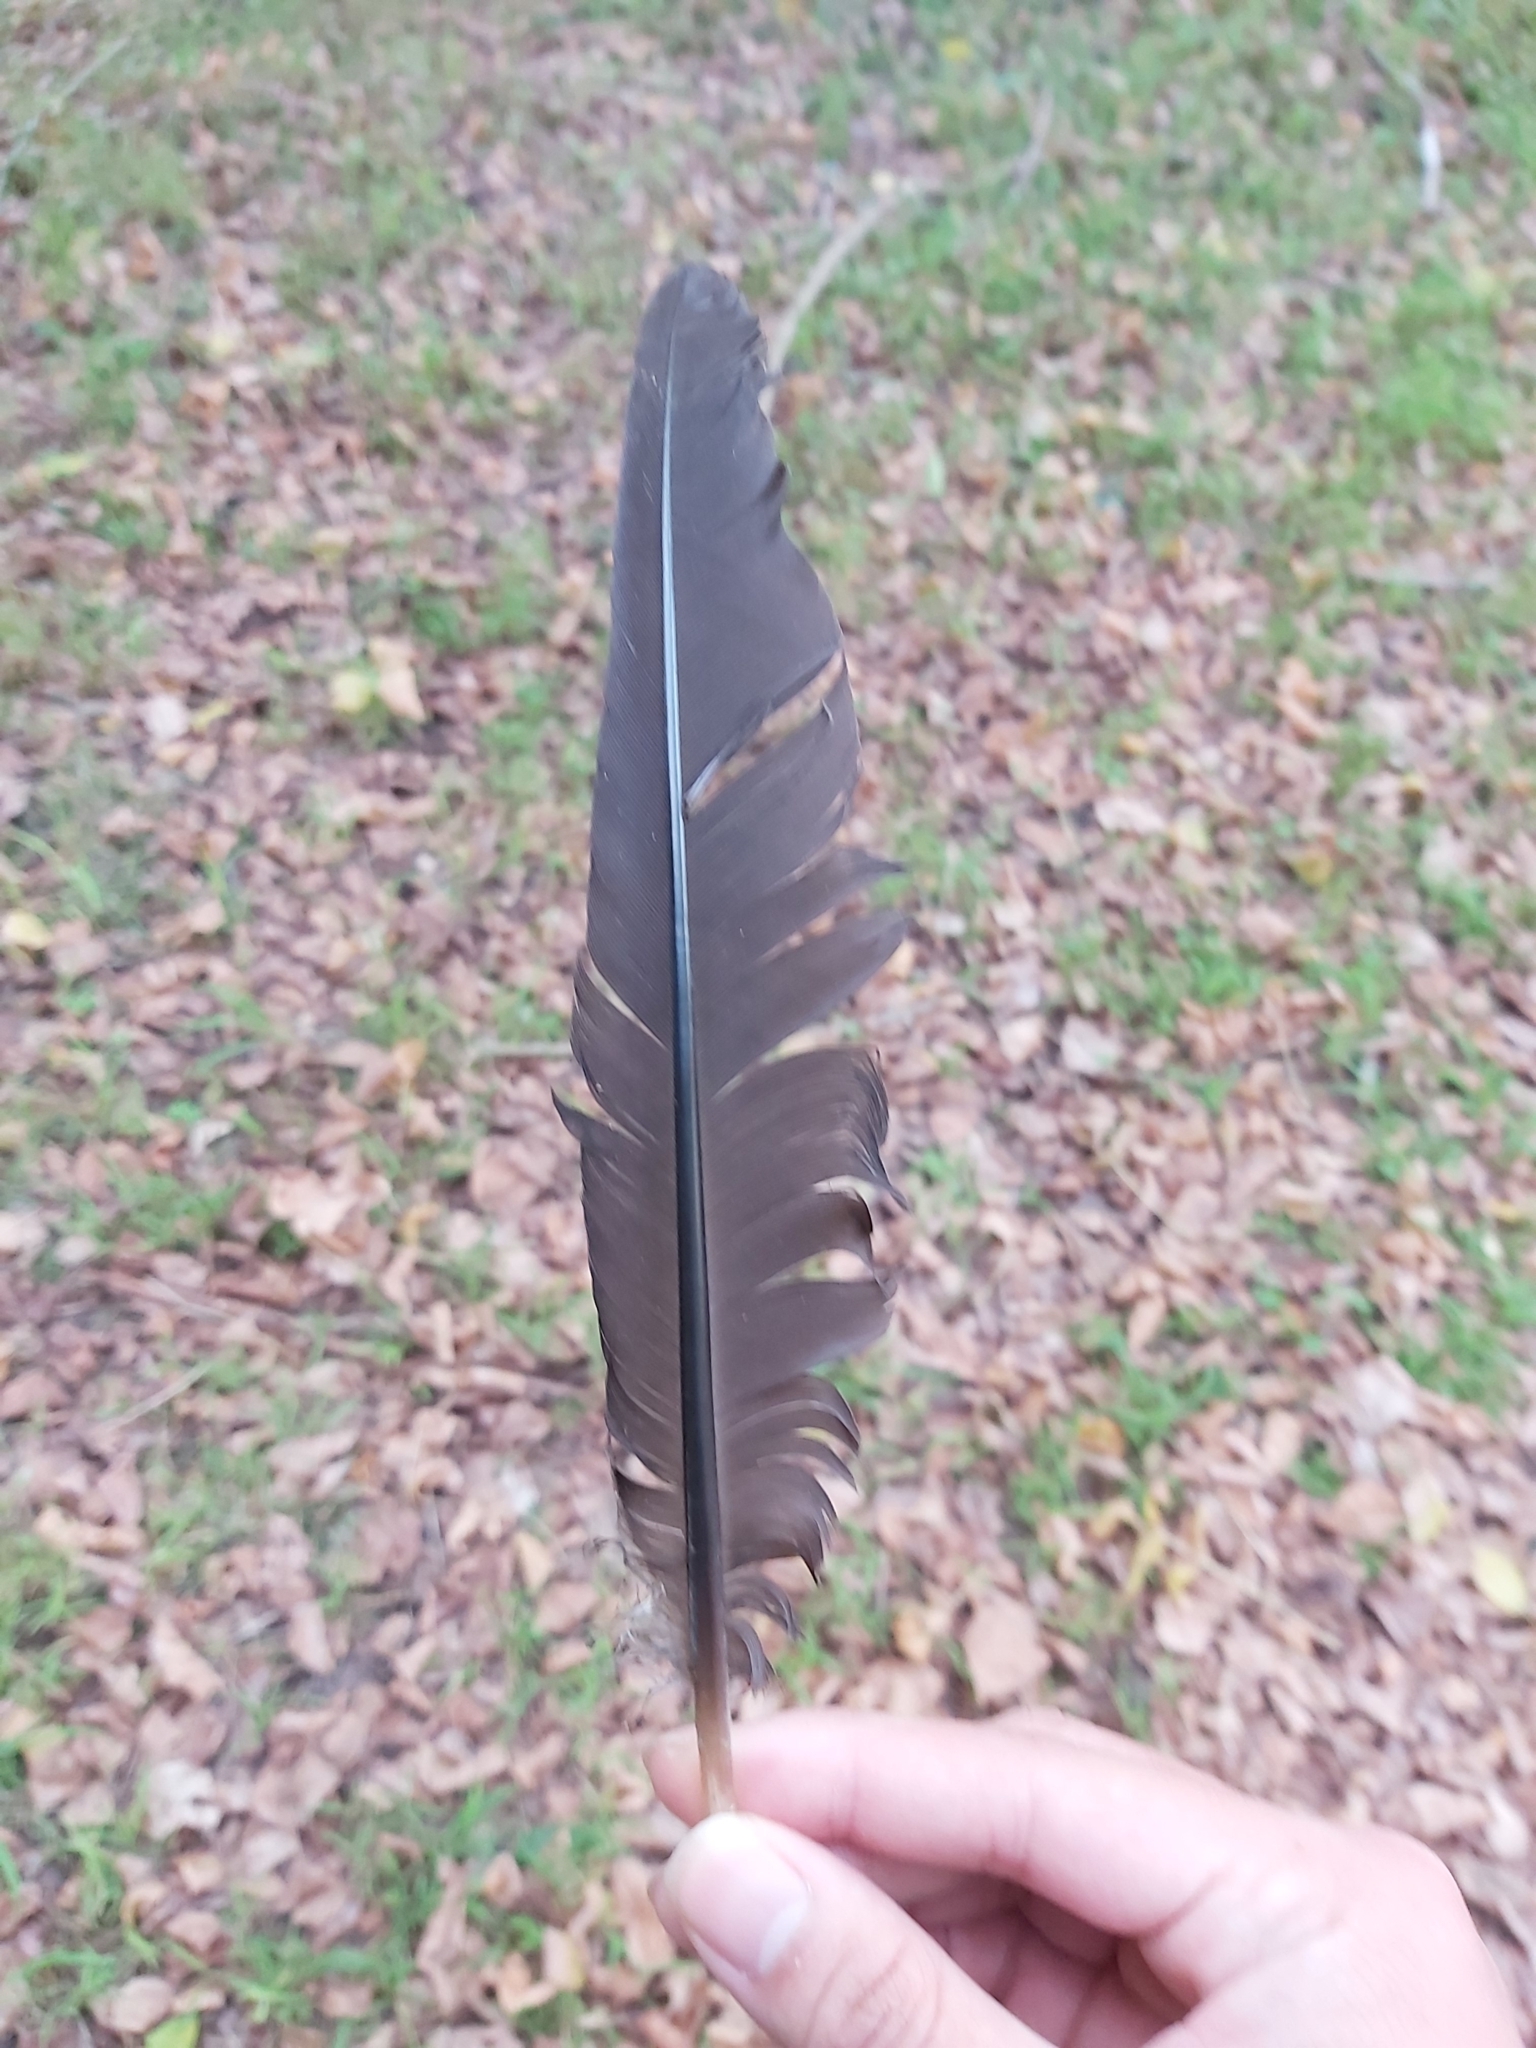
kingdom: Animalia
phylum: Chordata
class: Aves
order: Galliformes
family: Megapodiidae
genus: Alectura
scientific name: Alectura lathami
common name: Australian brushturkey
